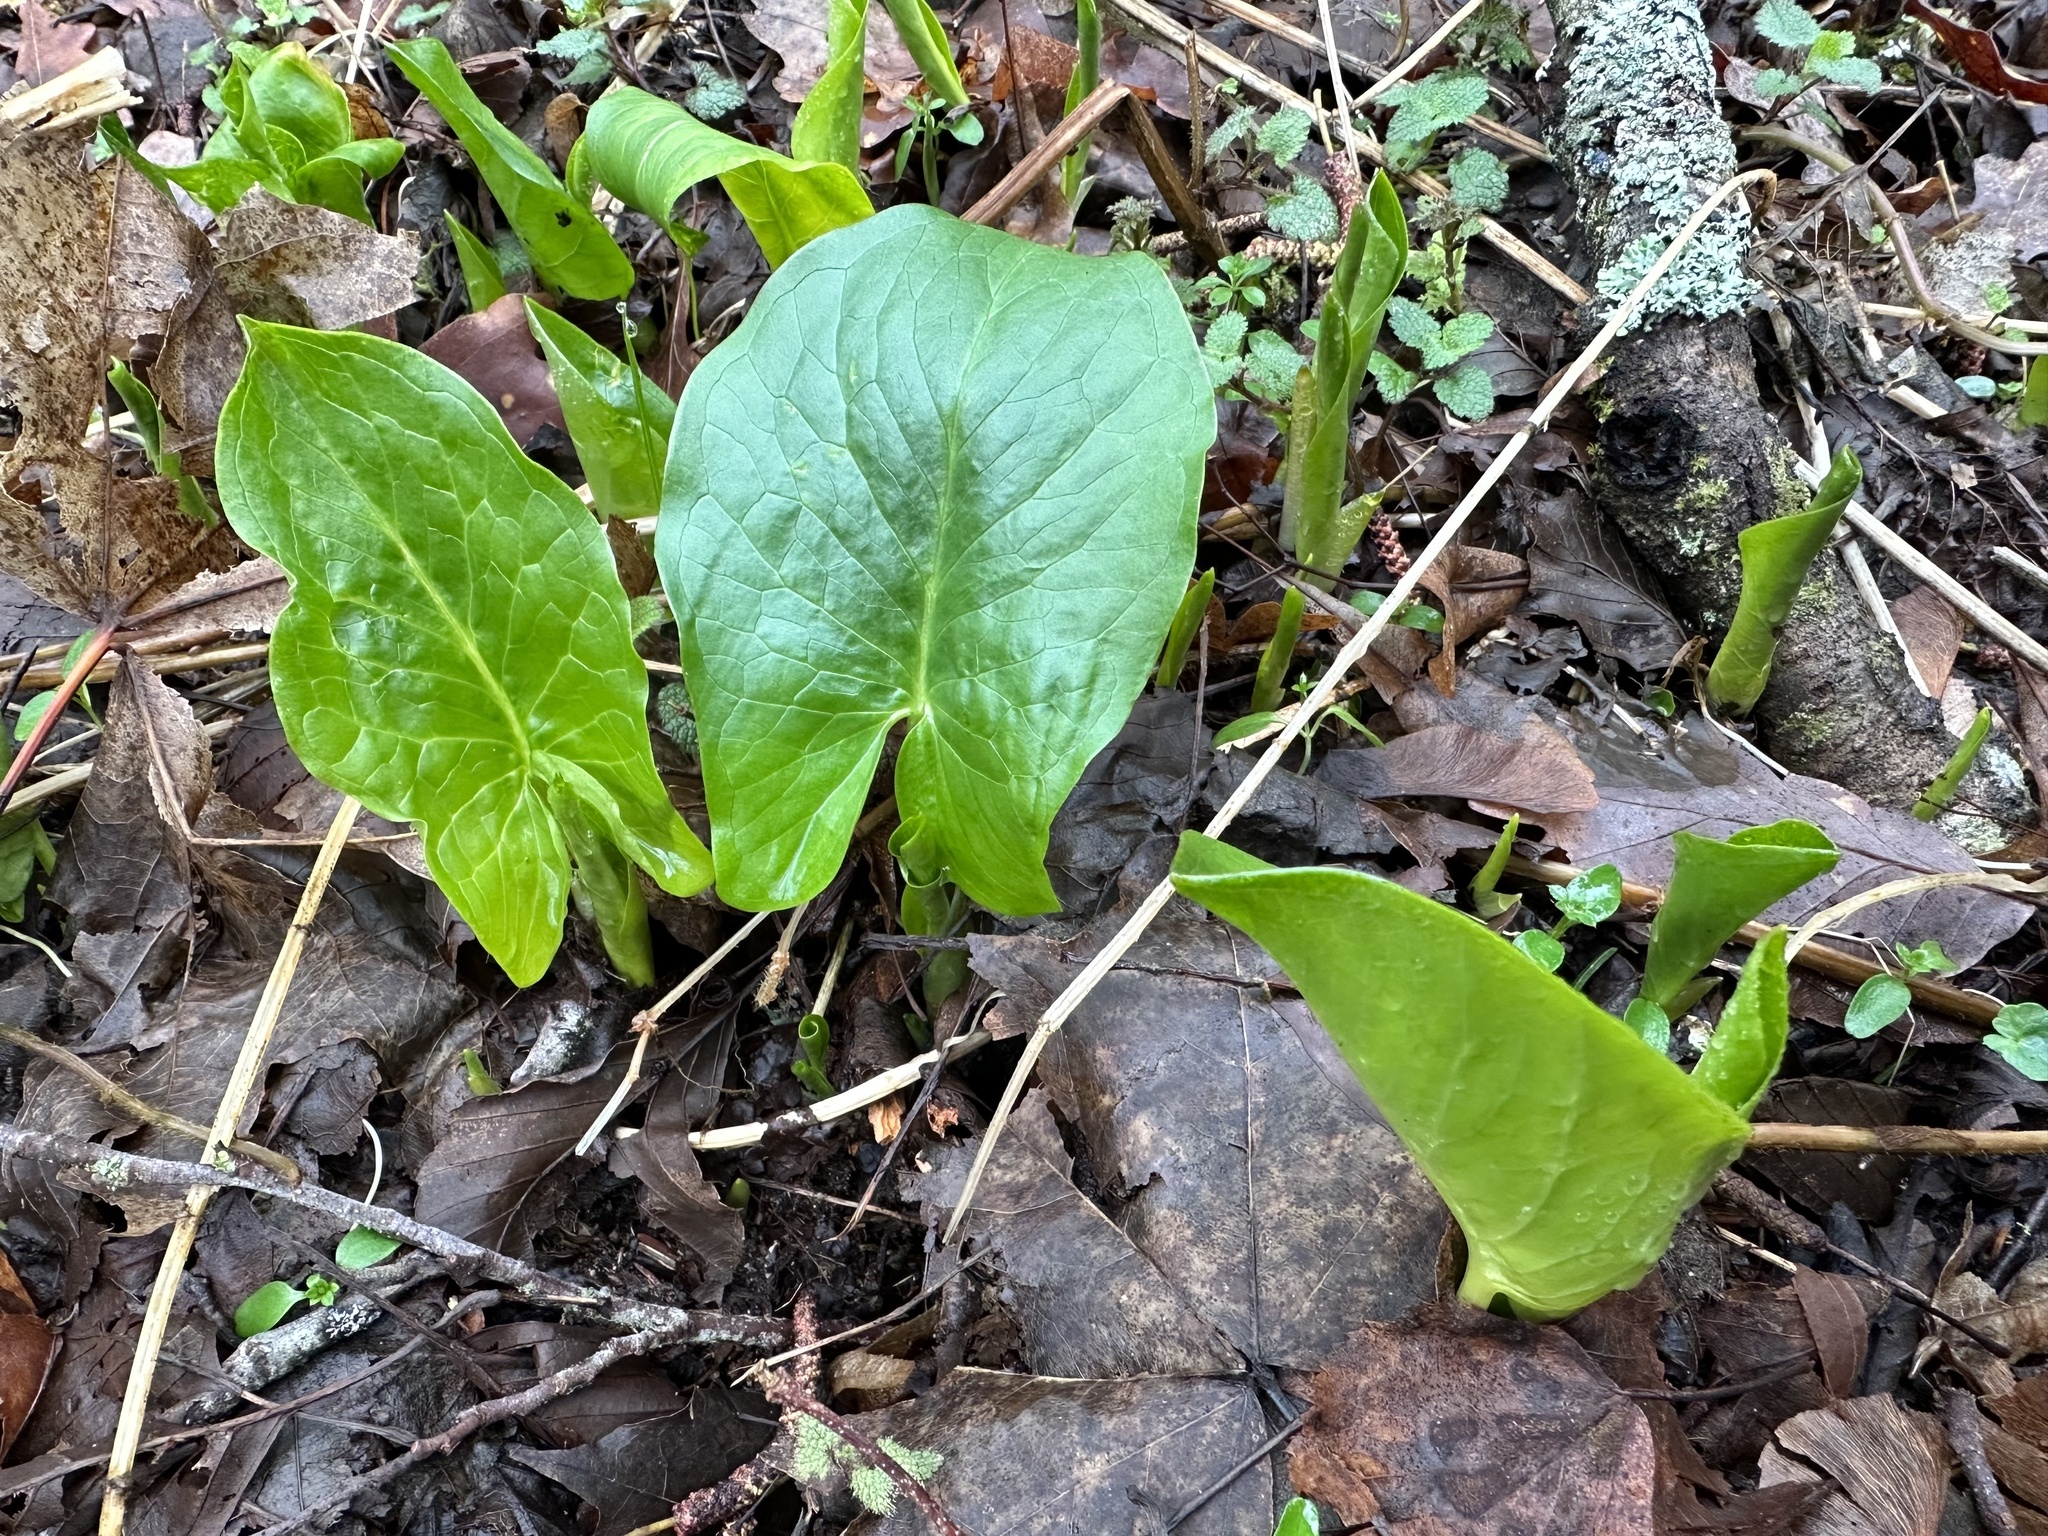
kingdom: Plantae
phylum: Tracheophyta
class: Liliopsida
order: Alismatales
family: Araceae
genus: Arum
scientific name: Arum maculatum
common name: Lords-and-ladies
